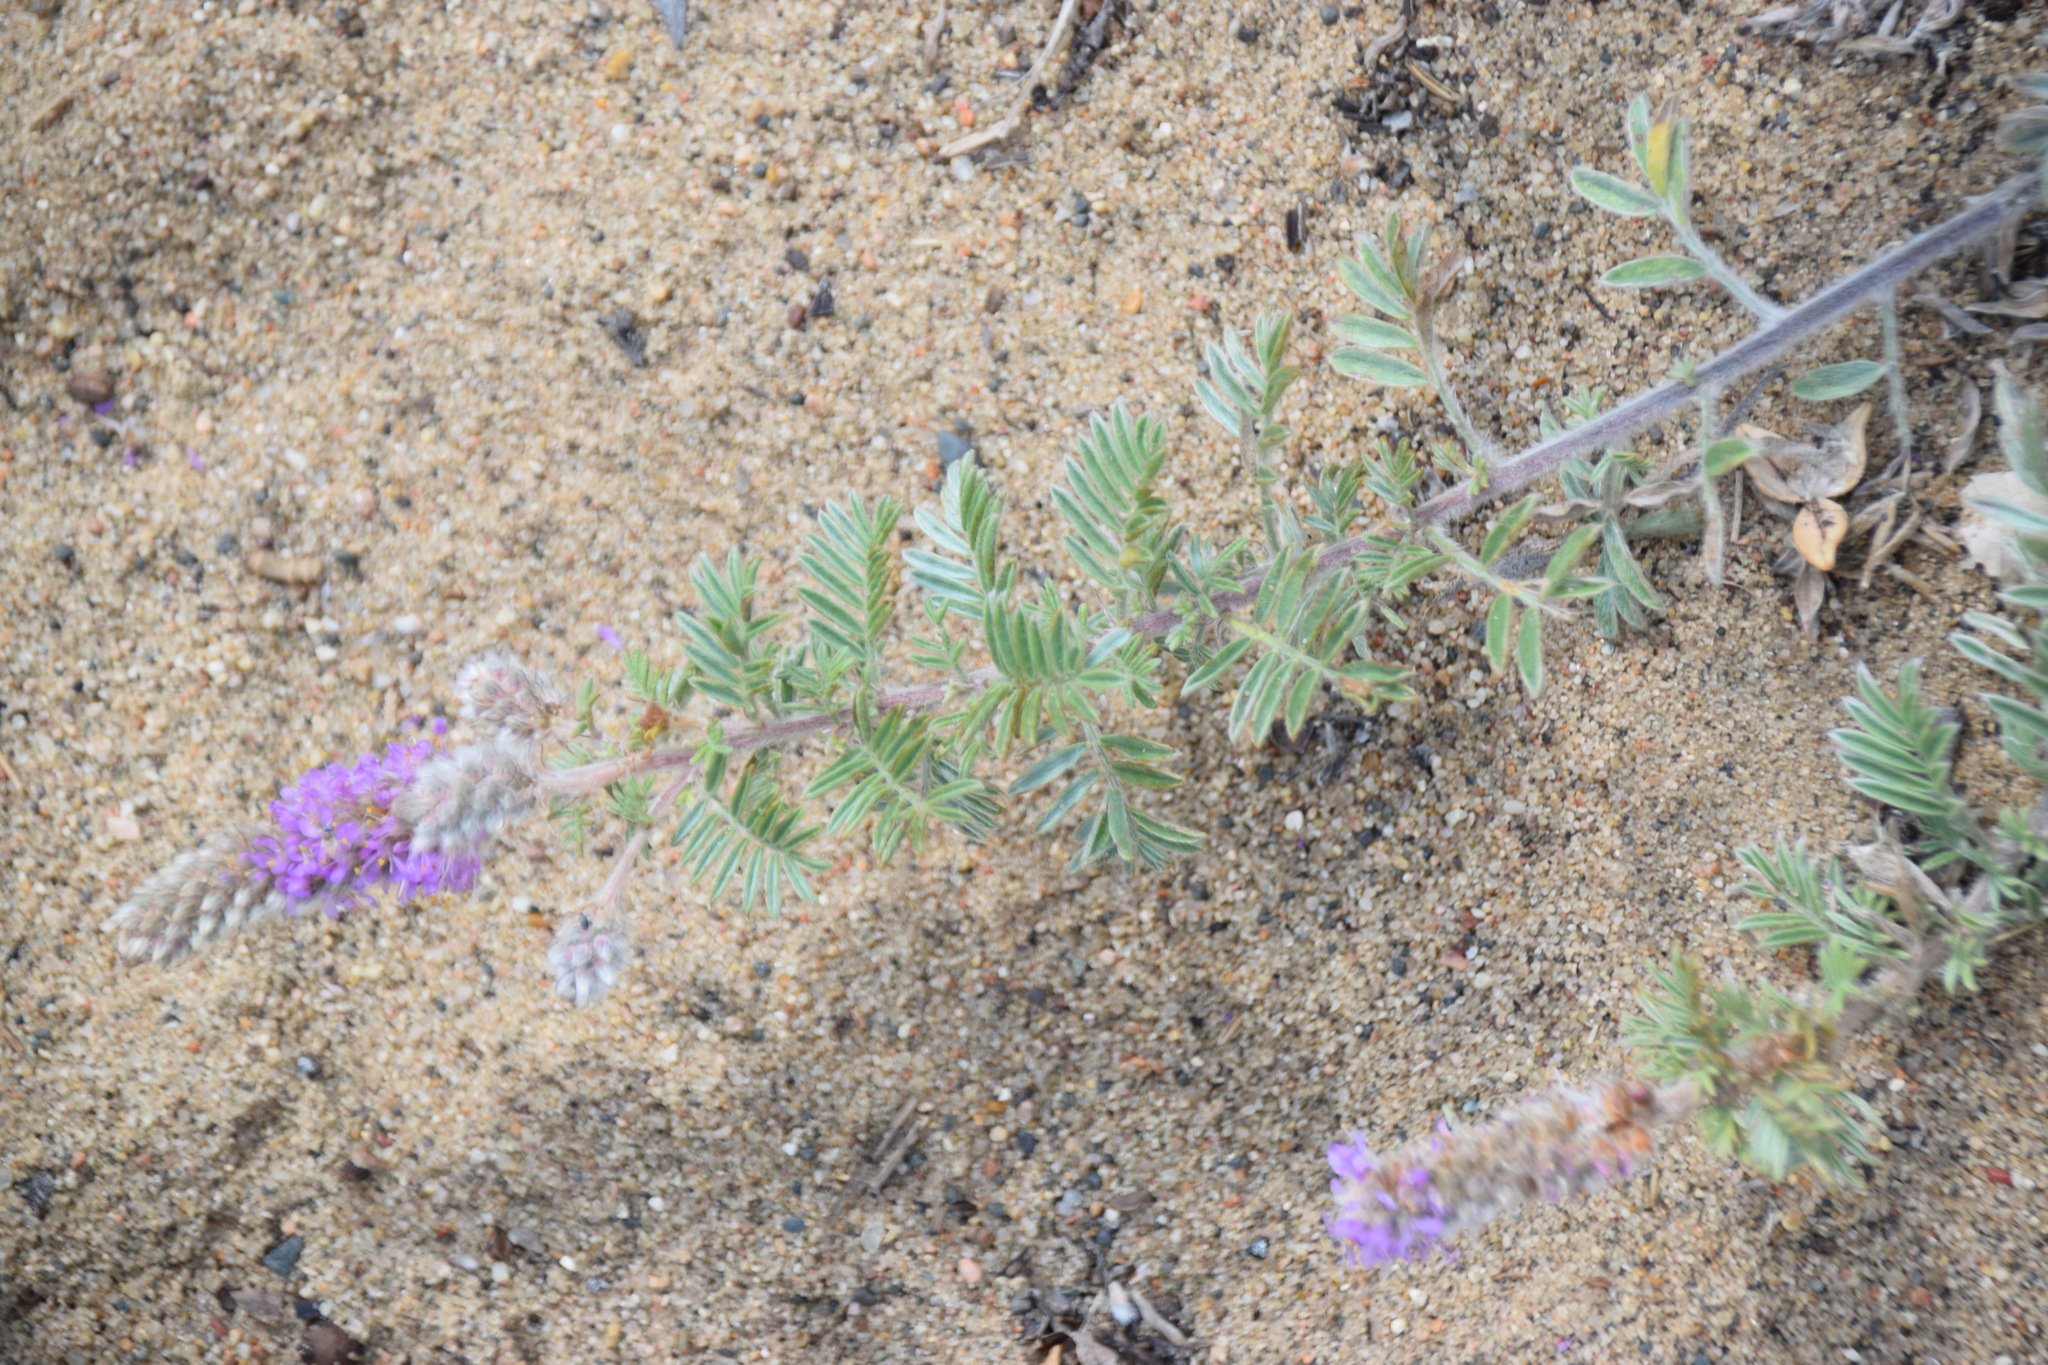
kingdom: Plantae
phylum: Tracheophyta
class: Magnoliopsida
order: Fabales
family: Fabaceae
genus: Dalea
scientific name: Dalea villosa
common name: Silky prairie-clover
